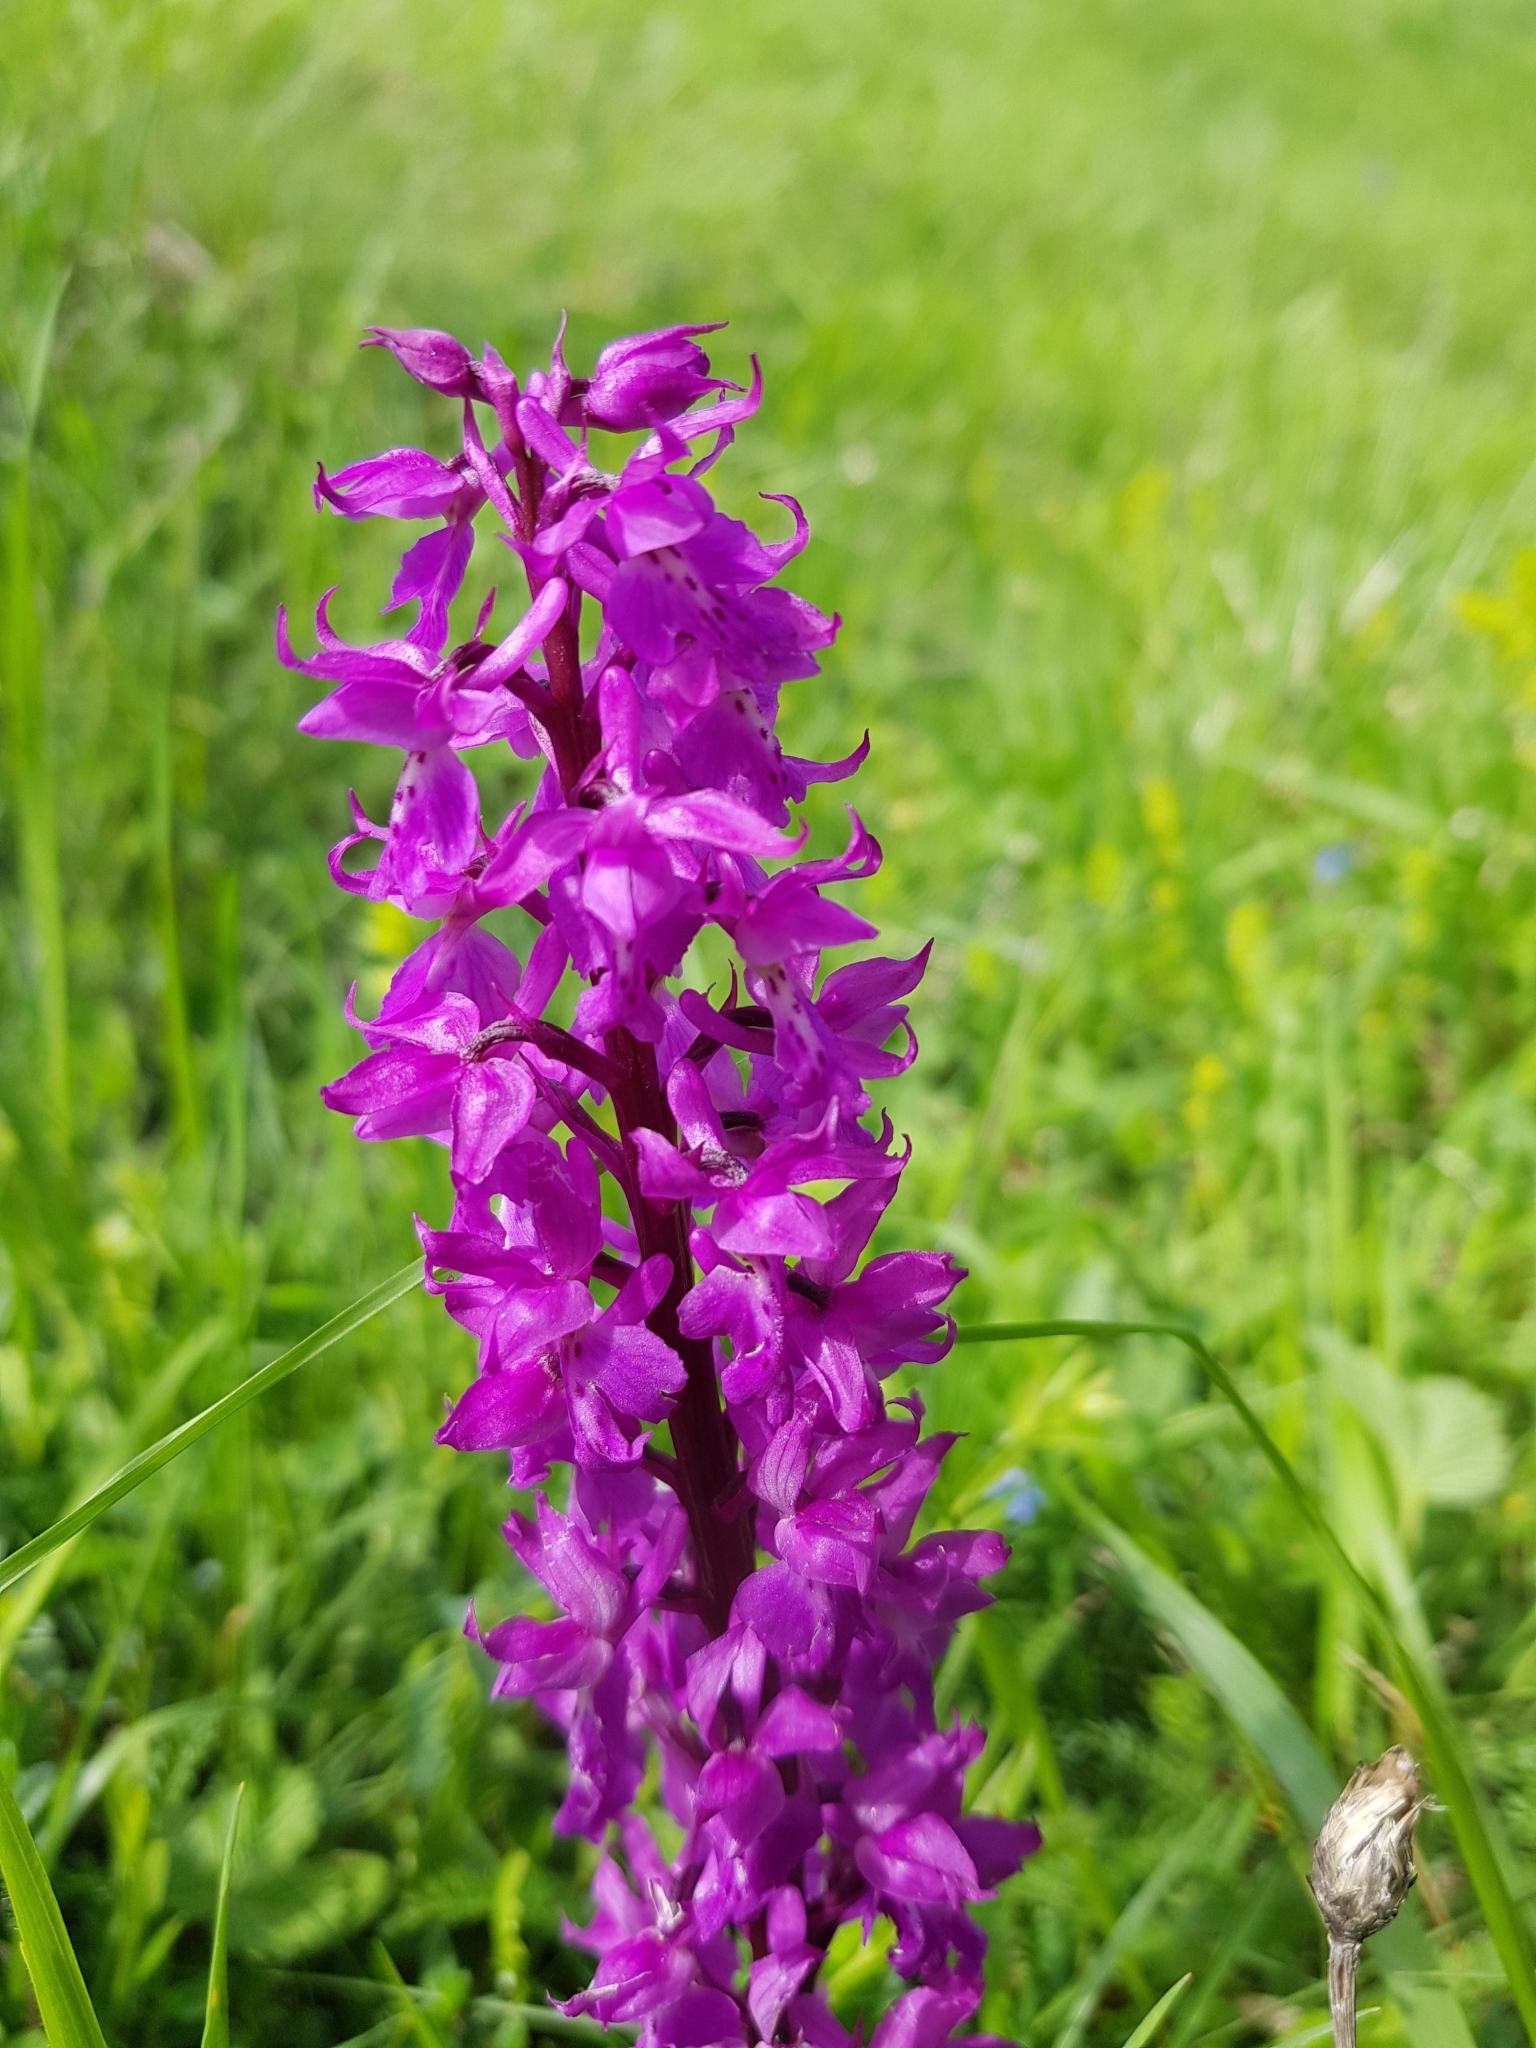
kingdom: Plantae
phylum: Tracheophyta
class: Liliopsida
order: Asparagales
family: Orchidaceae
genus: Orchis
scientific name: Orchis mascula
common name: Early-purple orchid
